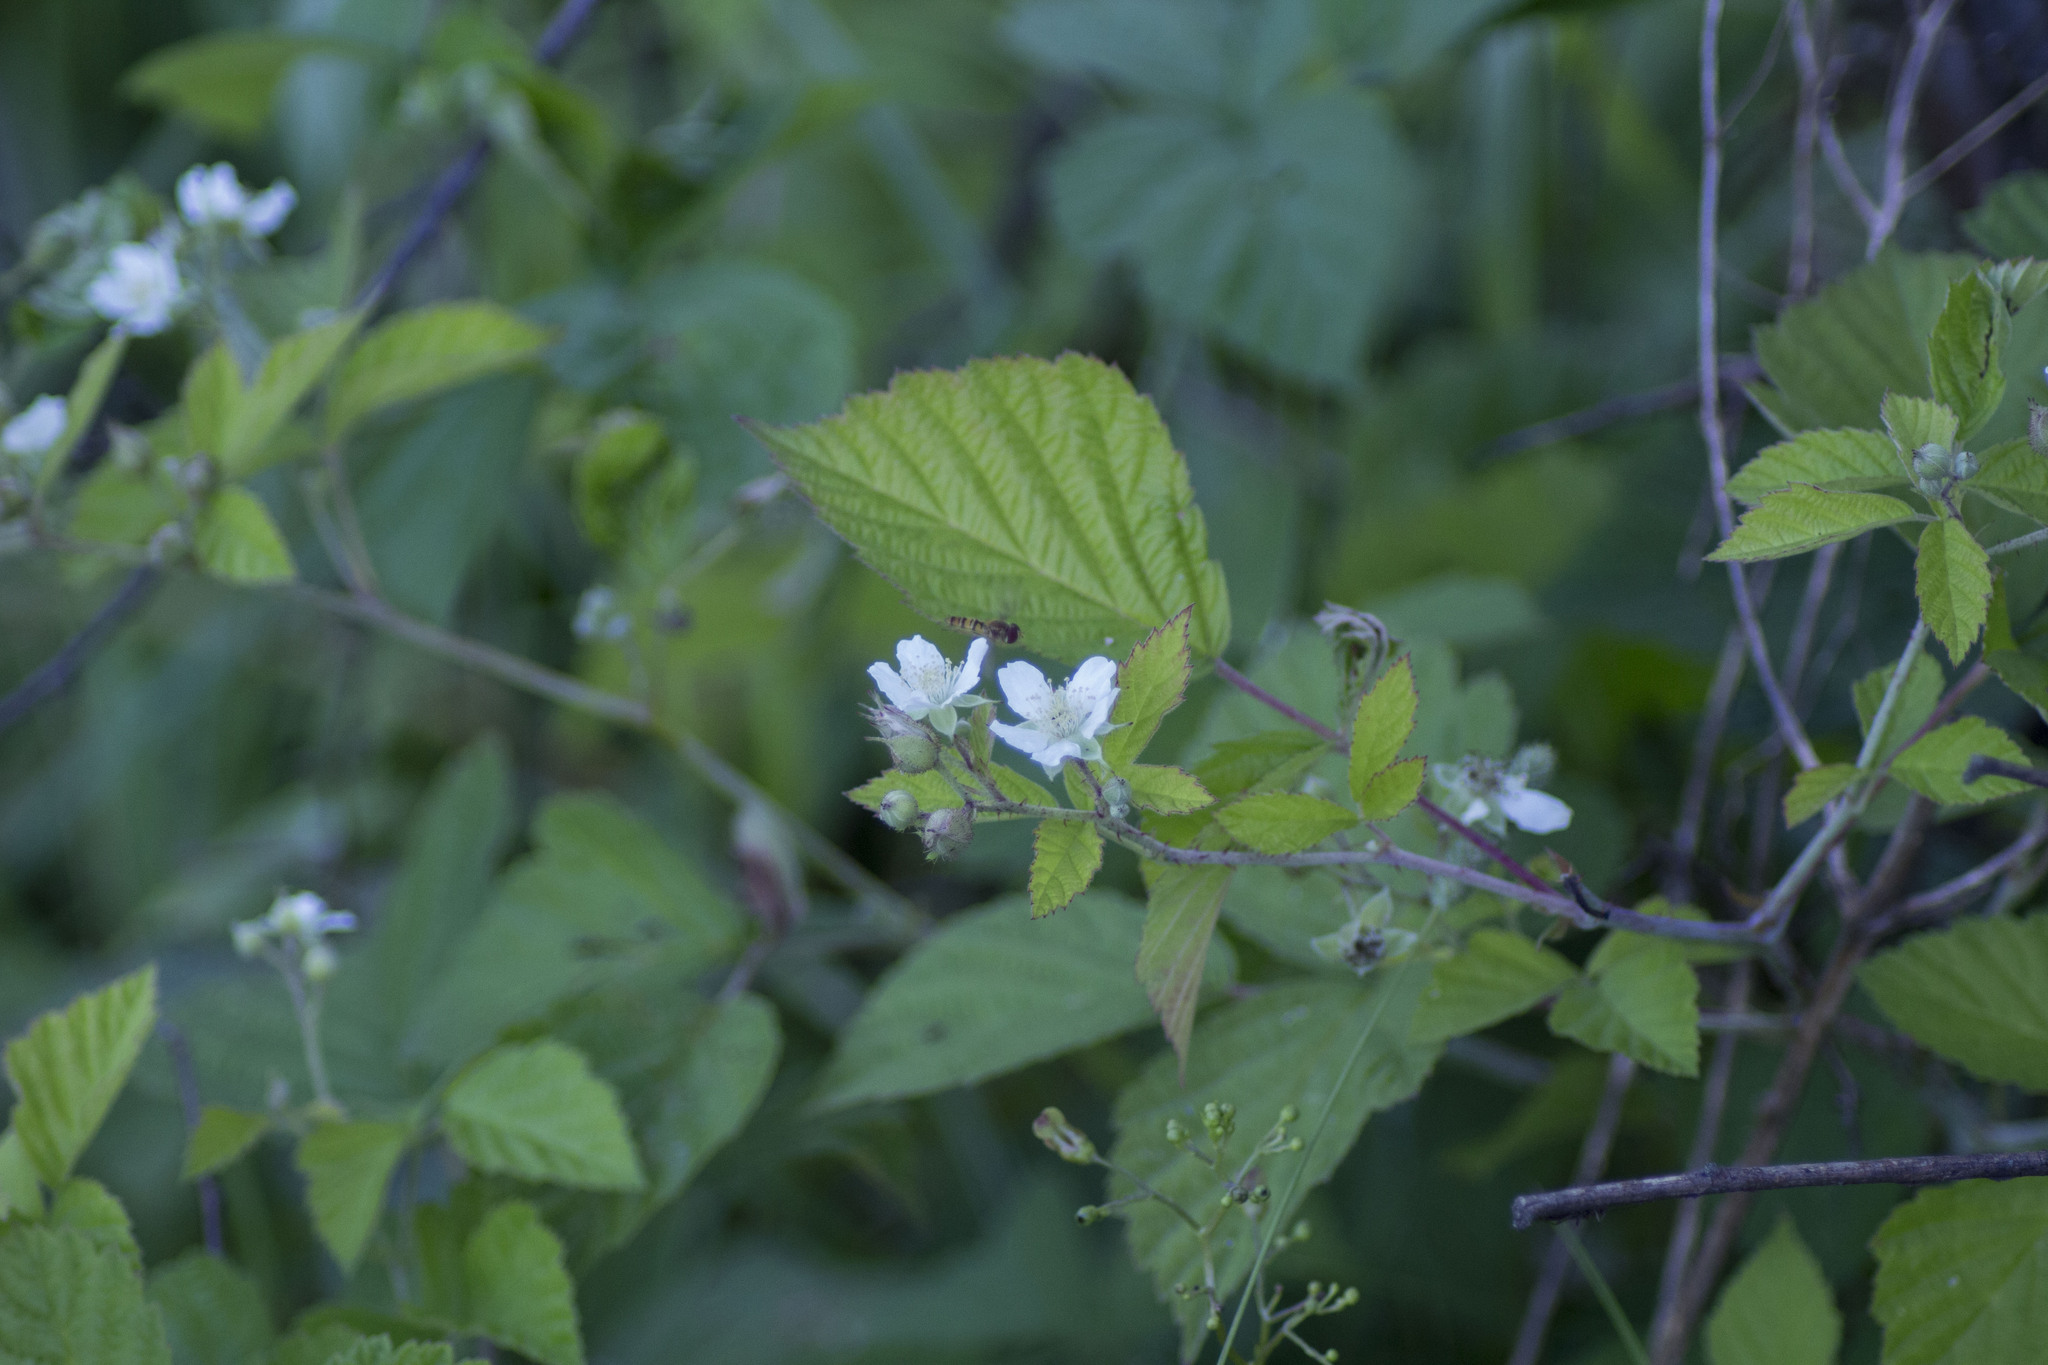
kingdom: Plantae
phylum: Tracheophyta
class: Magnoliopsida
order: Rosales
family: Rosaceae
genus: Rubus
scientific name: Rubus caesius
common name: Dewberry
